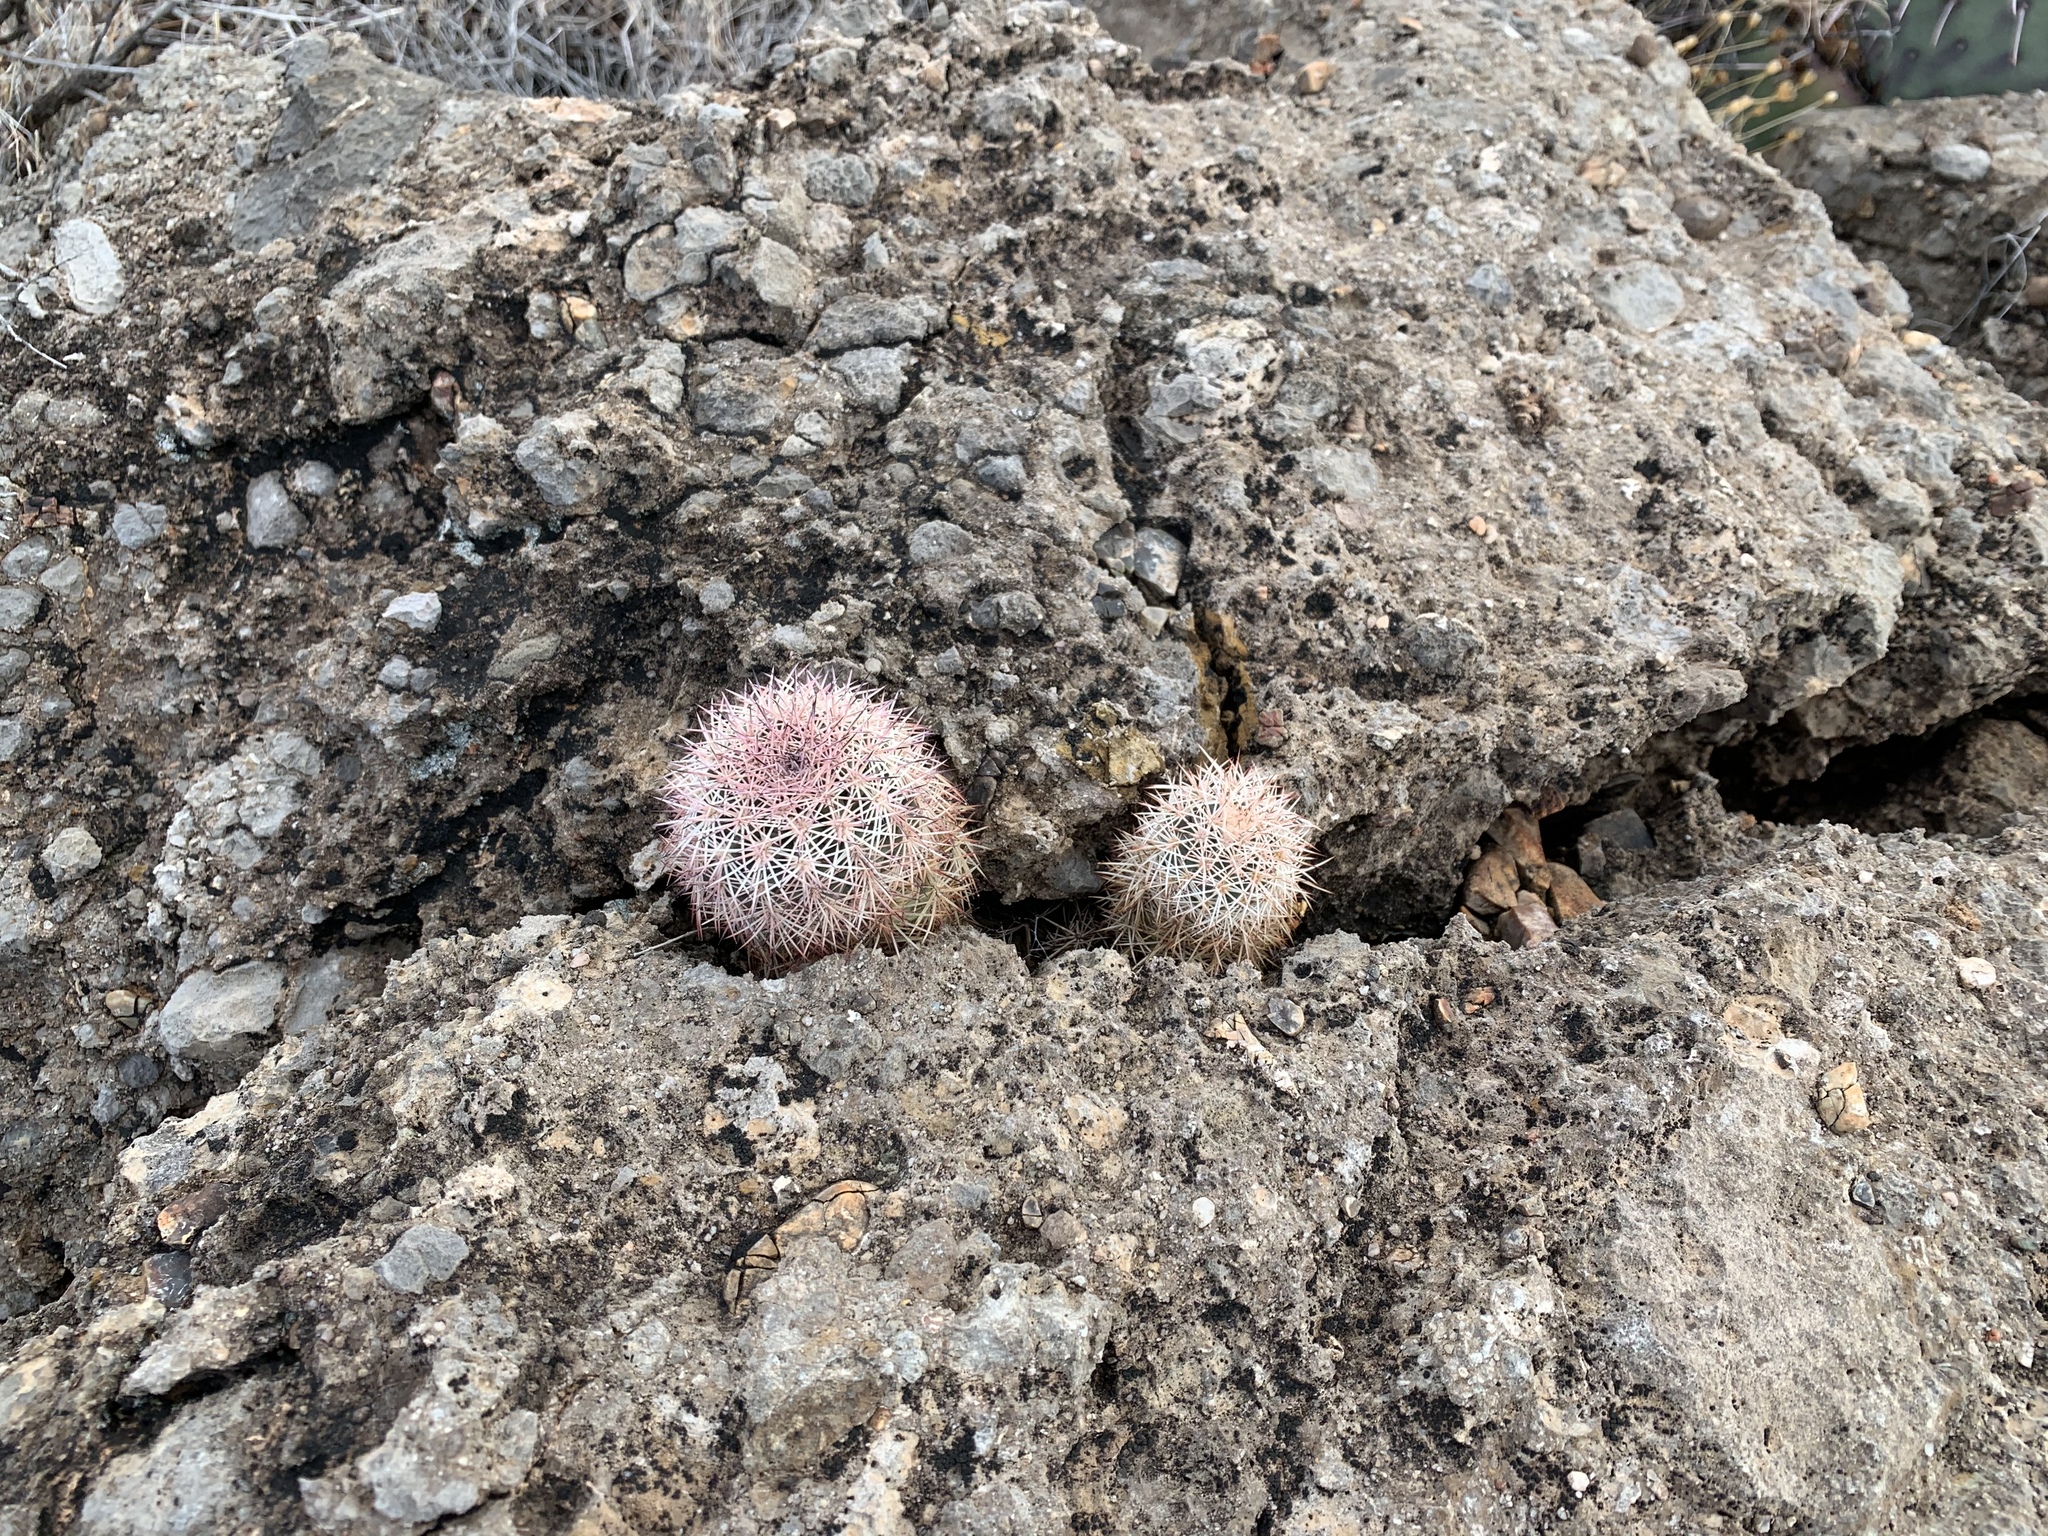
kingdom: Plantae
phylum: Tracheophyta
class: Magnoliopsida
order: Caryophyllales
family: Cactaceae
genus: Echinocereus
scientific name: Echinocereus dasyacanthus
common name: Spiny hedgehog cactus
